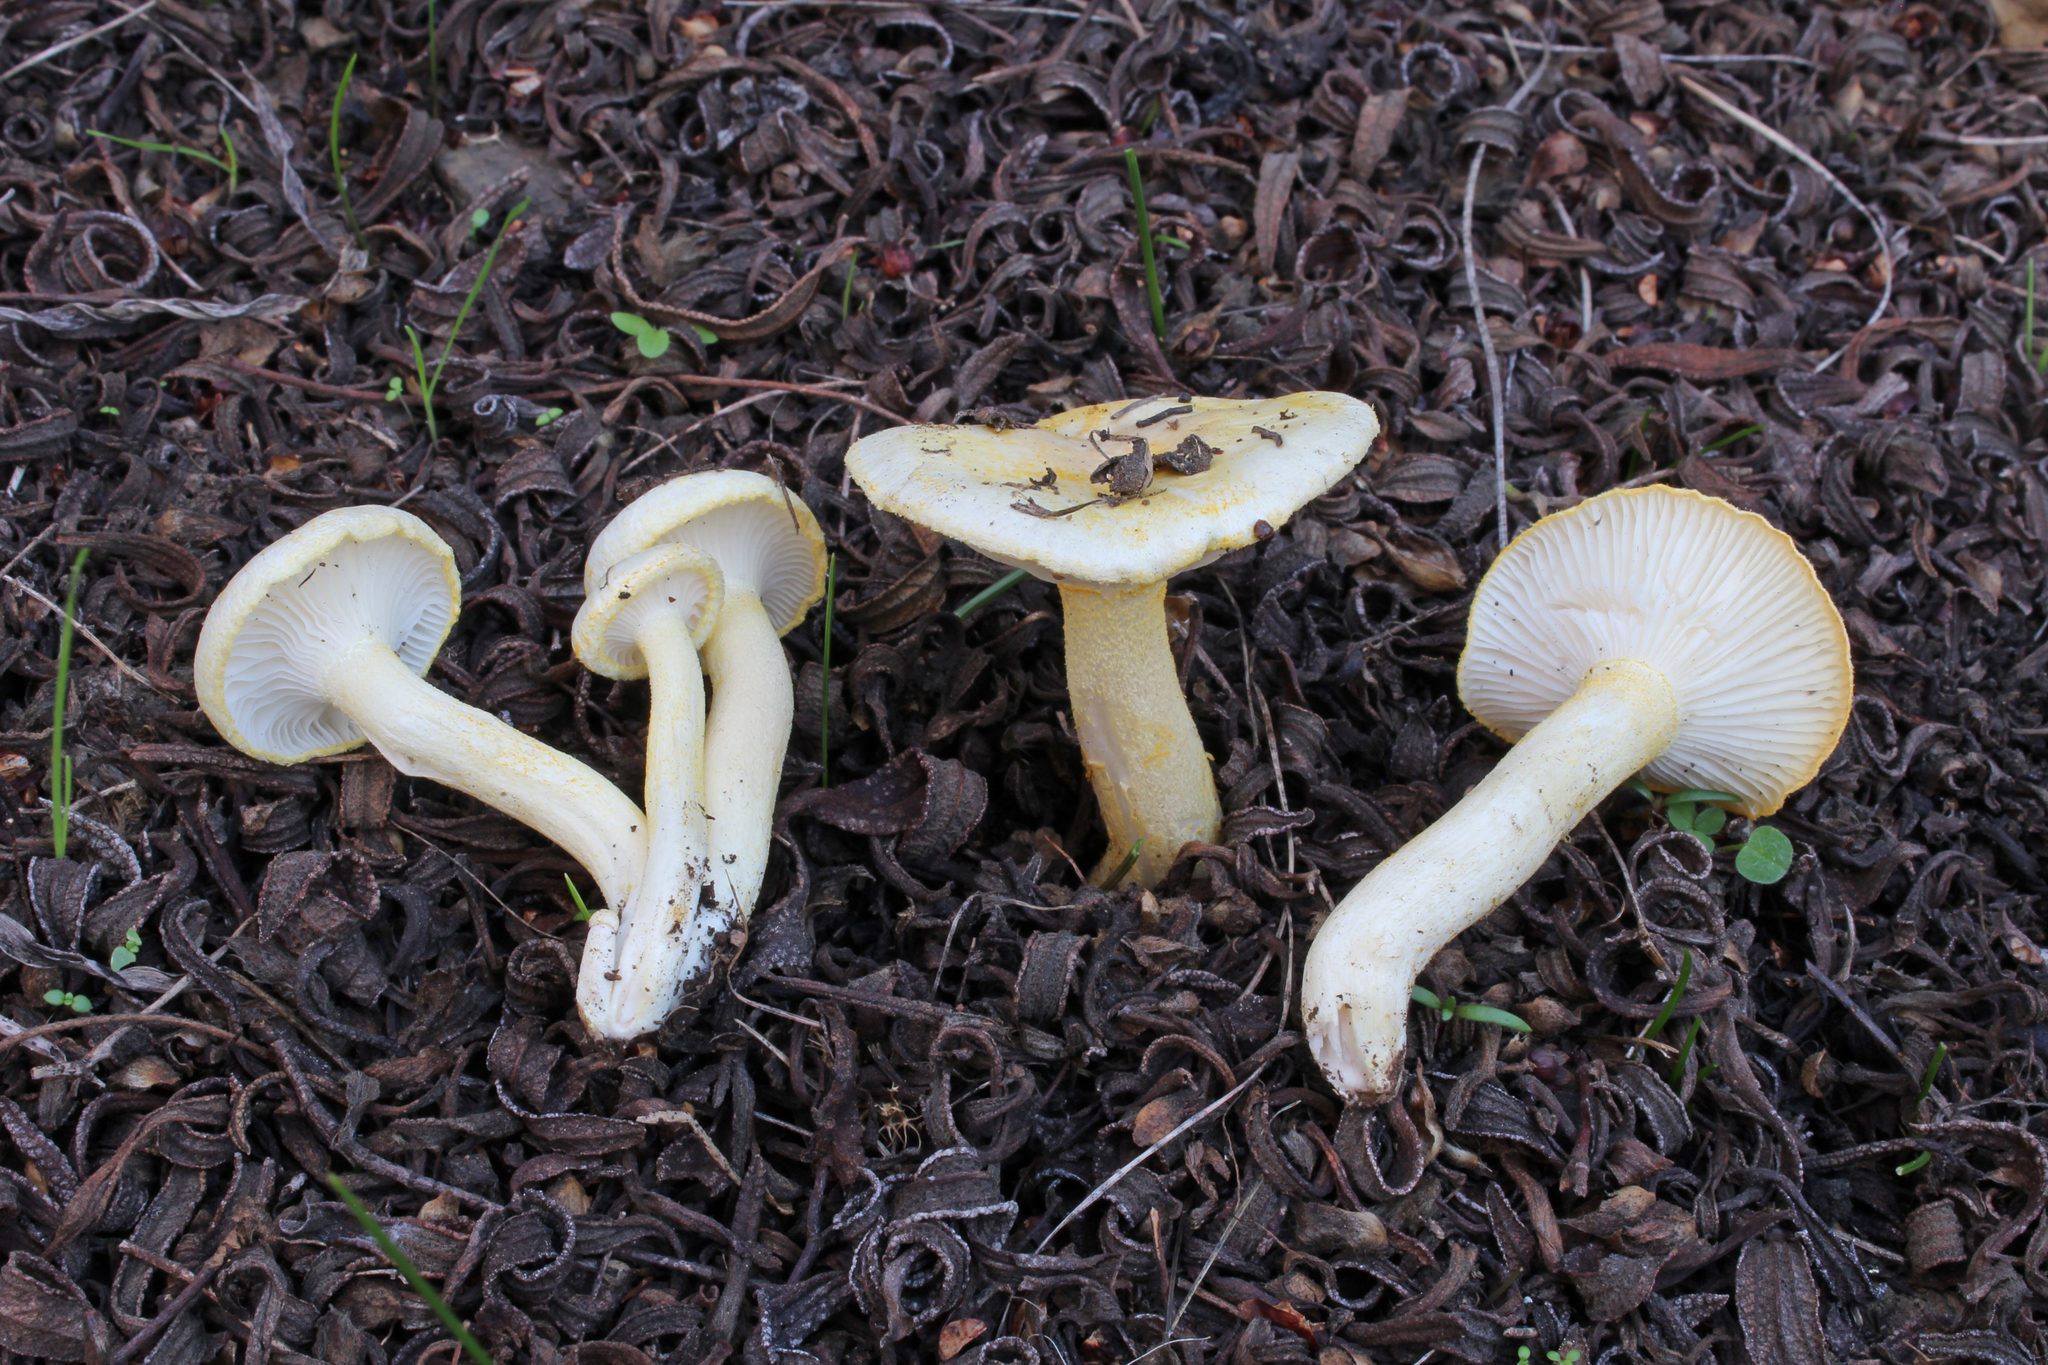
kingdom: Fungi
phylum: Basidiomycota
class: Agaricomycetes
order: Agaricales
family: Hygrophoraceae
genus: Hygrophorus
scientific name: Hygrophorus chrysodon
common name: Gold flecked woodwax
